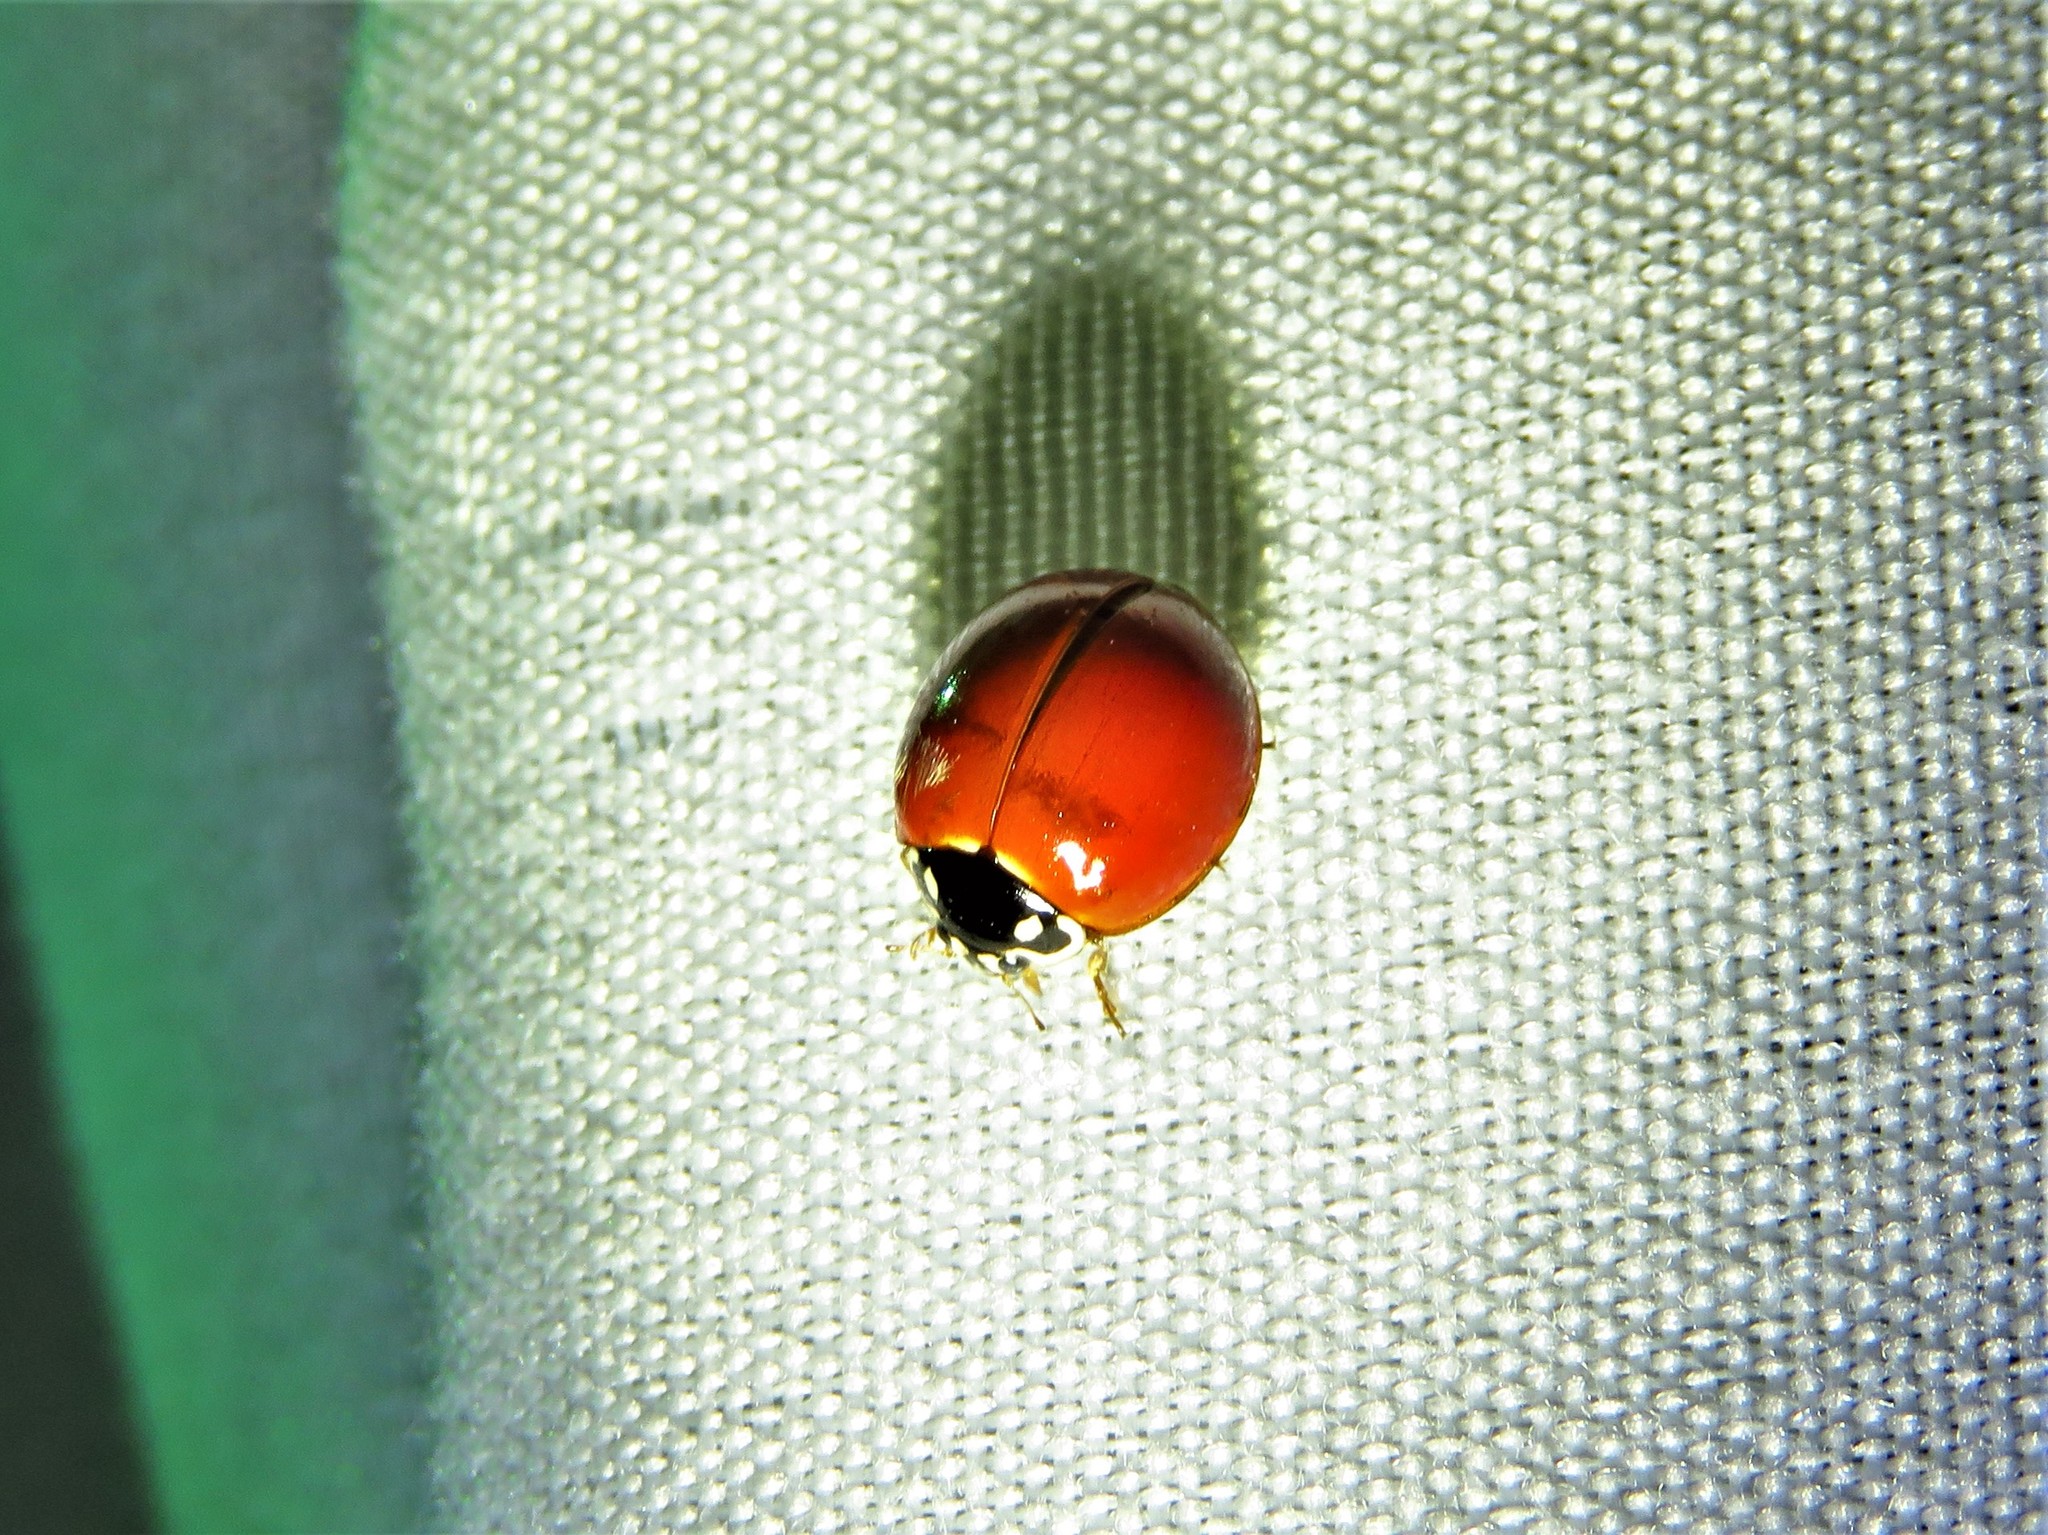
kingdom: Animalia
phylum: Arthropoda
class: Insecta
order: Coleoptera
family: Coccinellidae
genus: Cycloneda
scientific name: Cycloneda sanguinea
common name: Ladybird beetle
